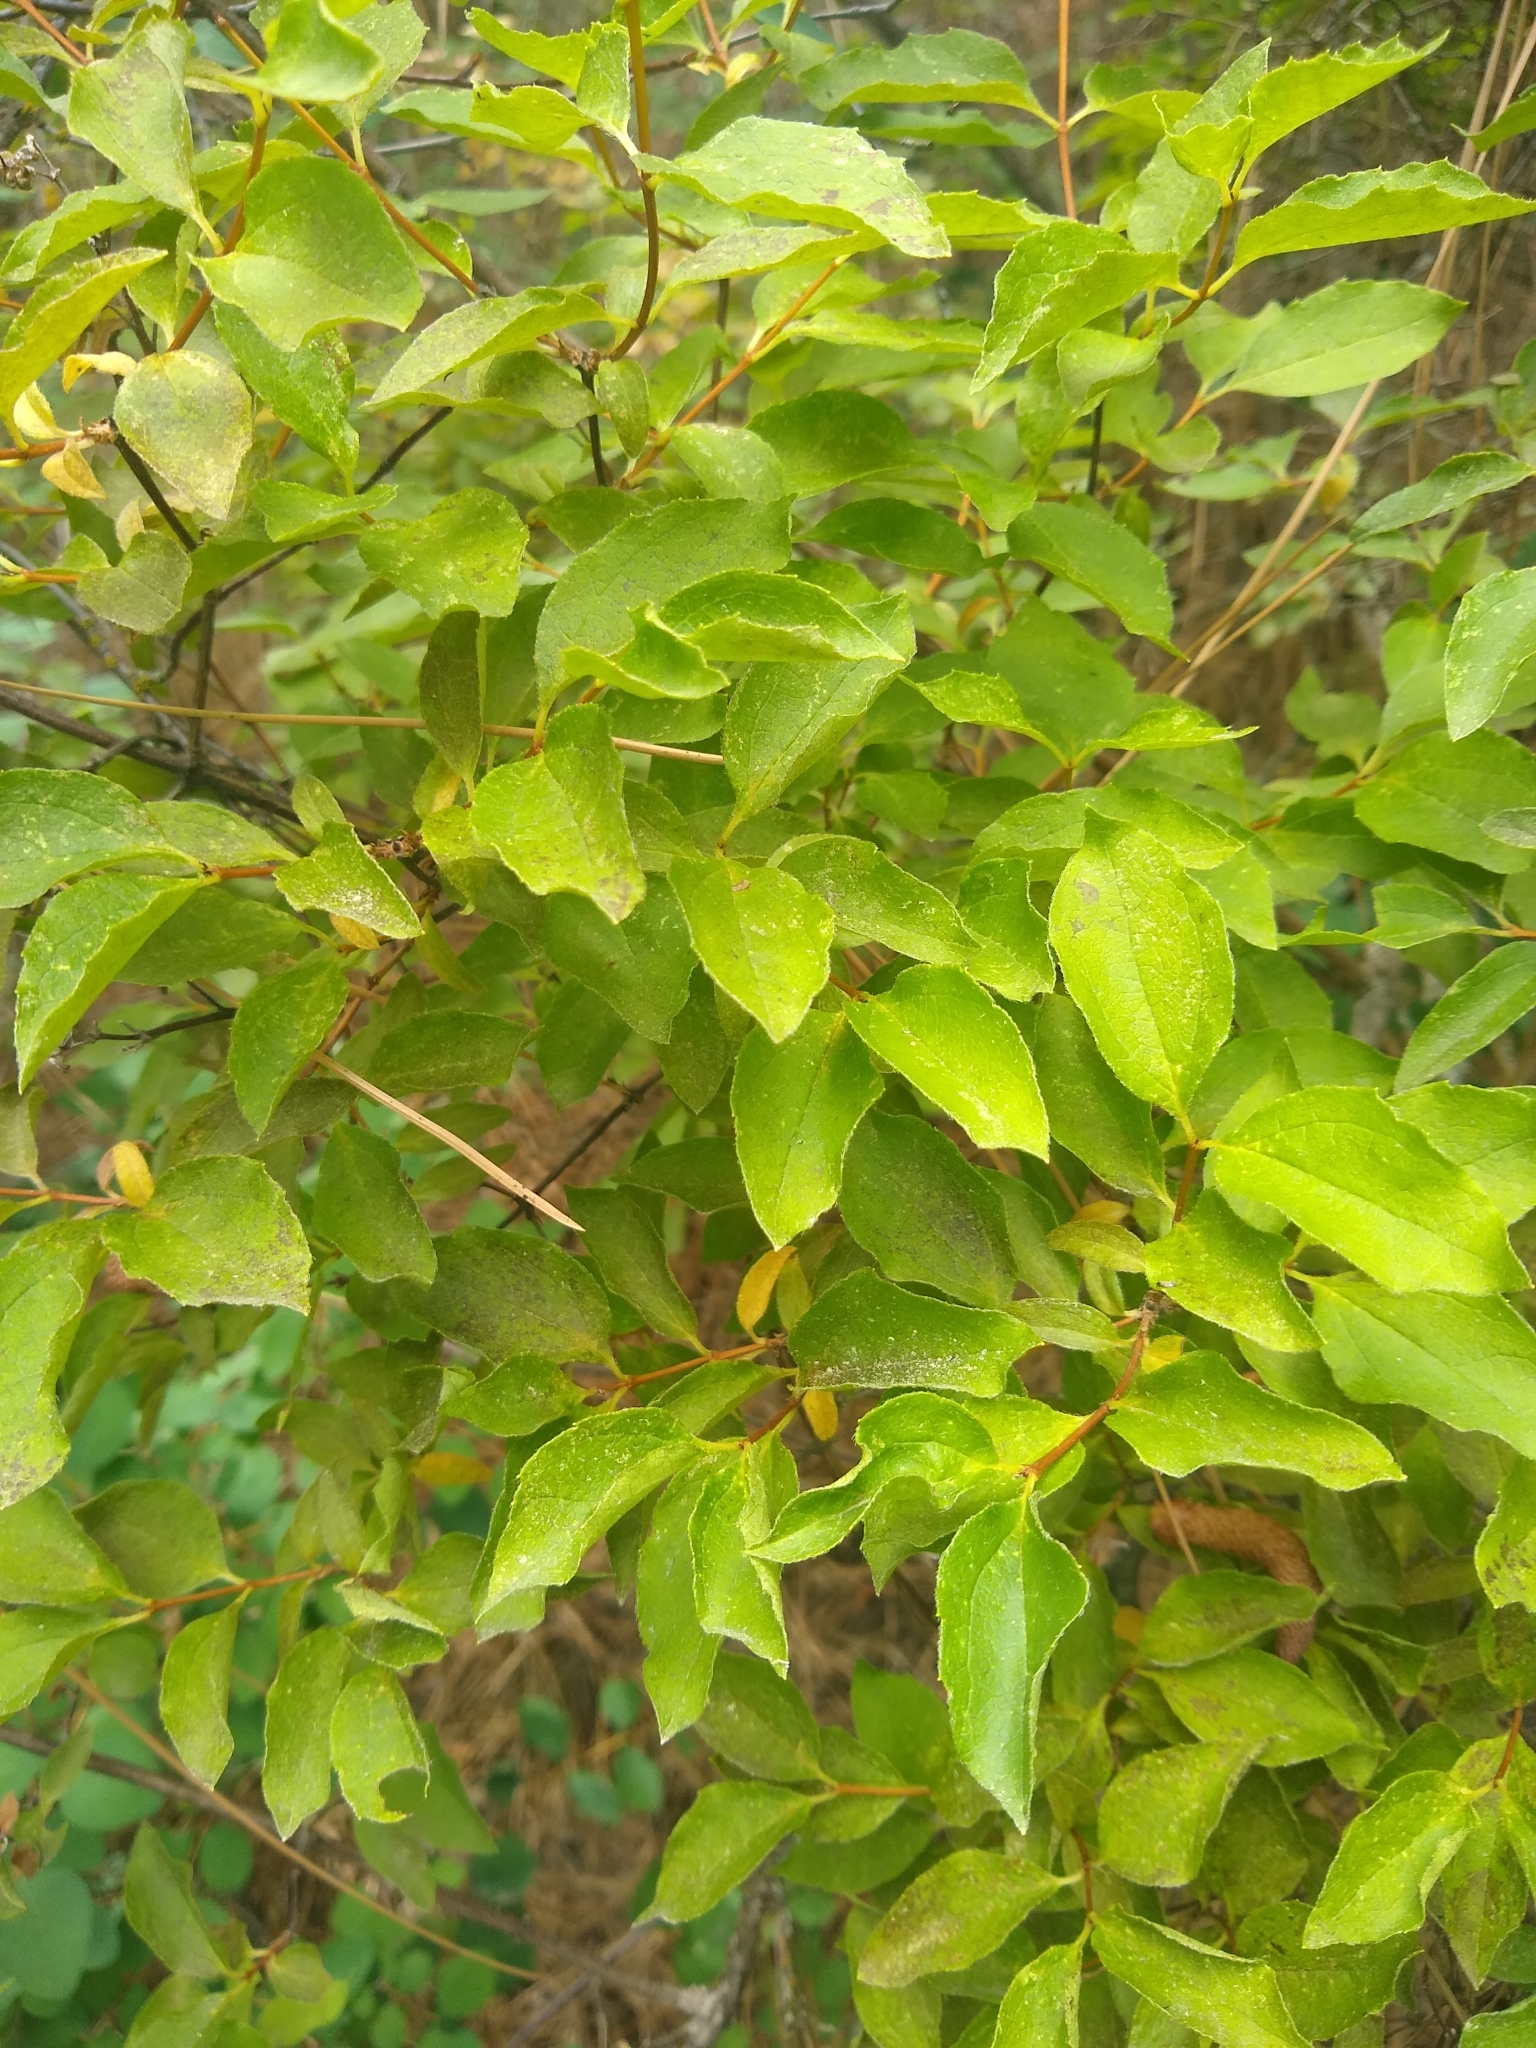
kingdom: Plantae
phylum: Tracheophyta
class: Magnoliopsida
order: Cornales
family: Hydrangeaceae
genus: Philadelphus
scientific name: Philadelphus lewisii
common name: Lewis's mock orange
